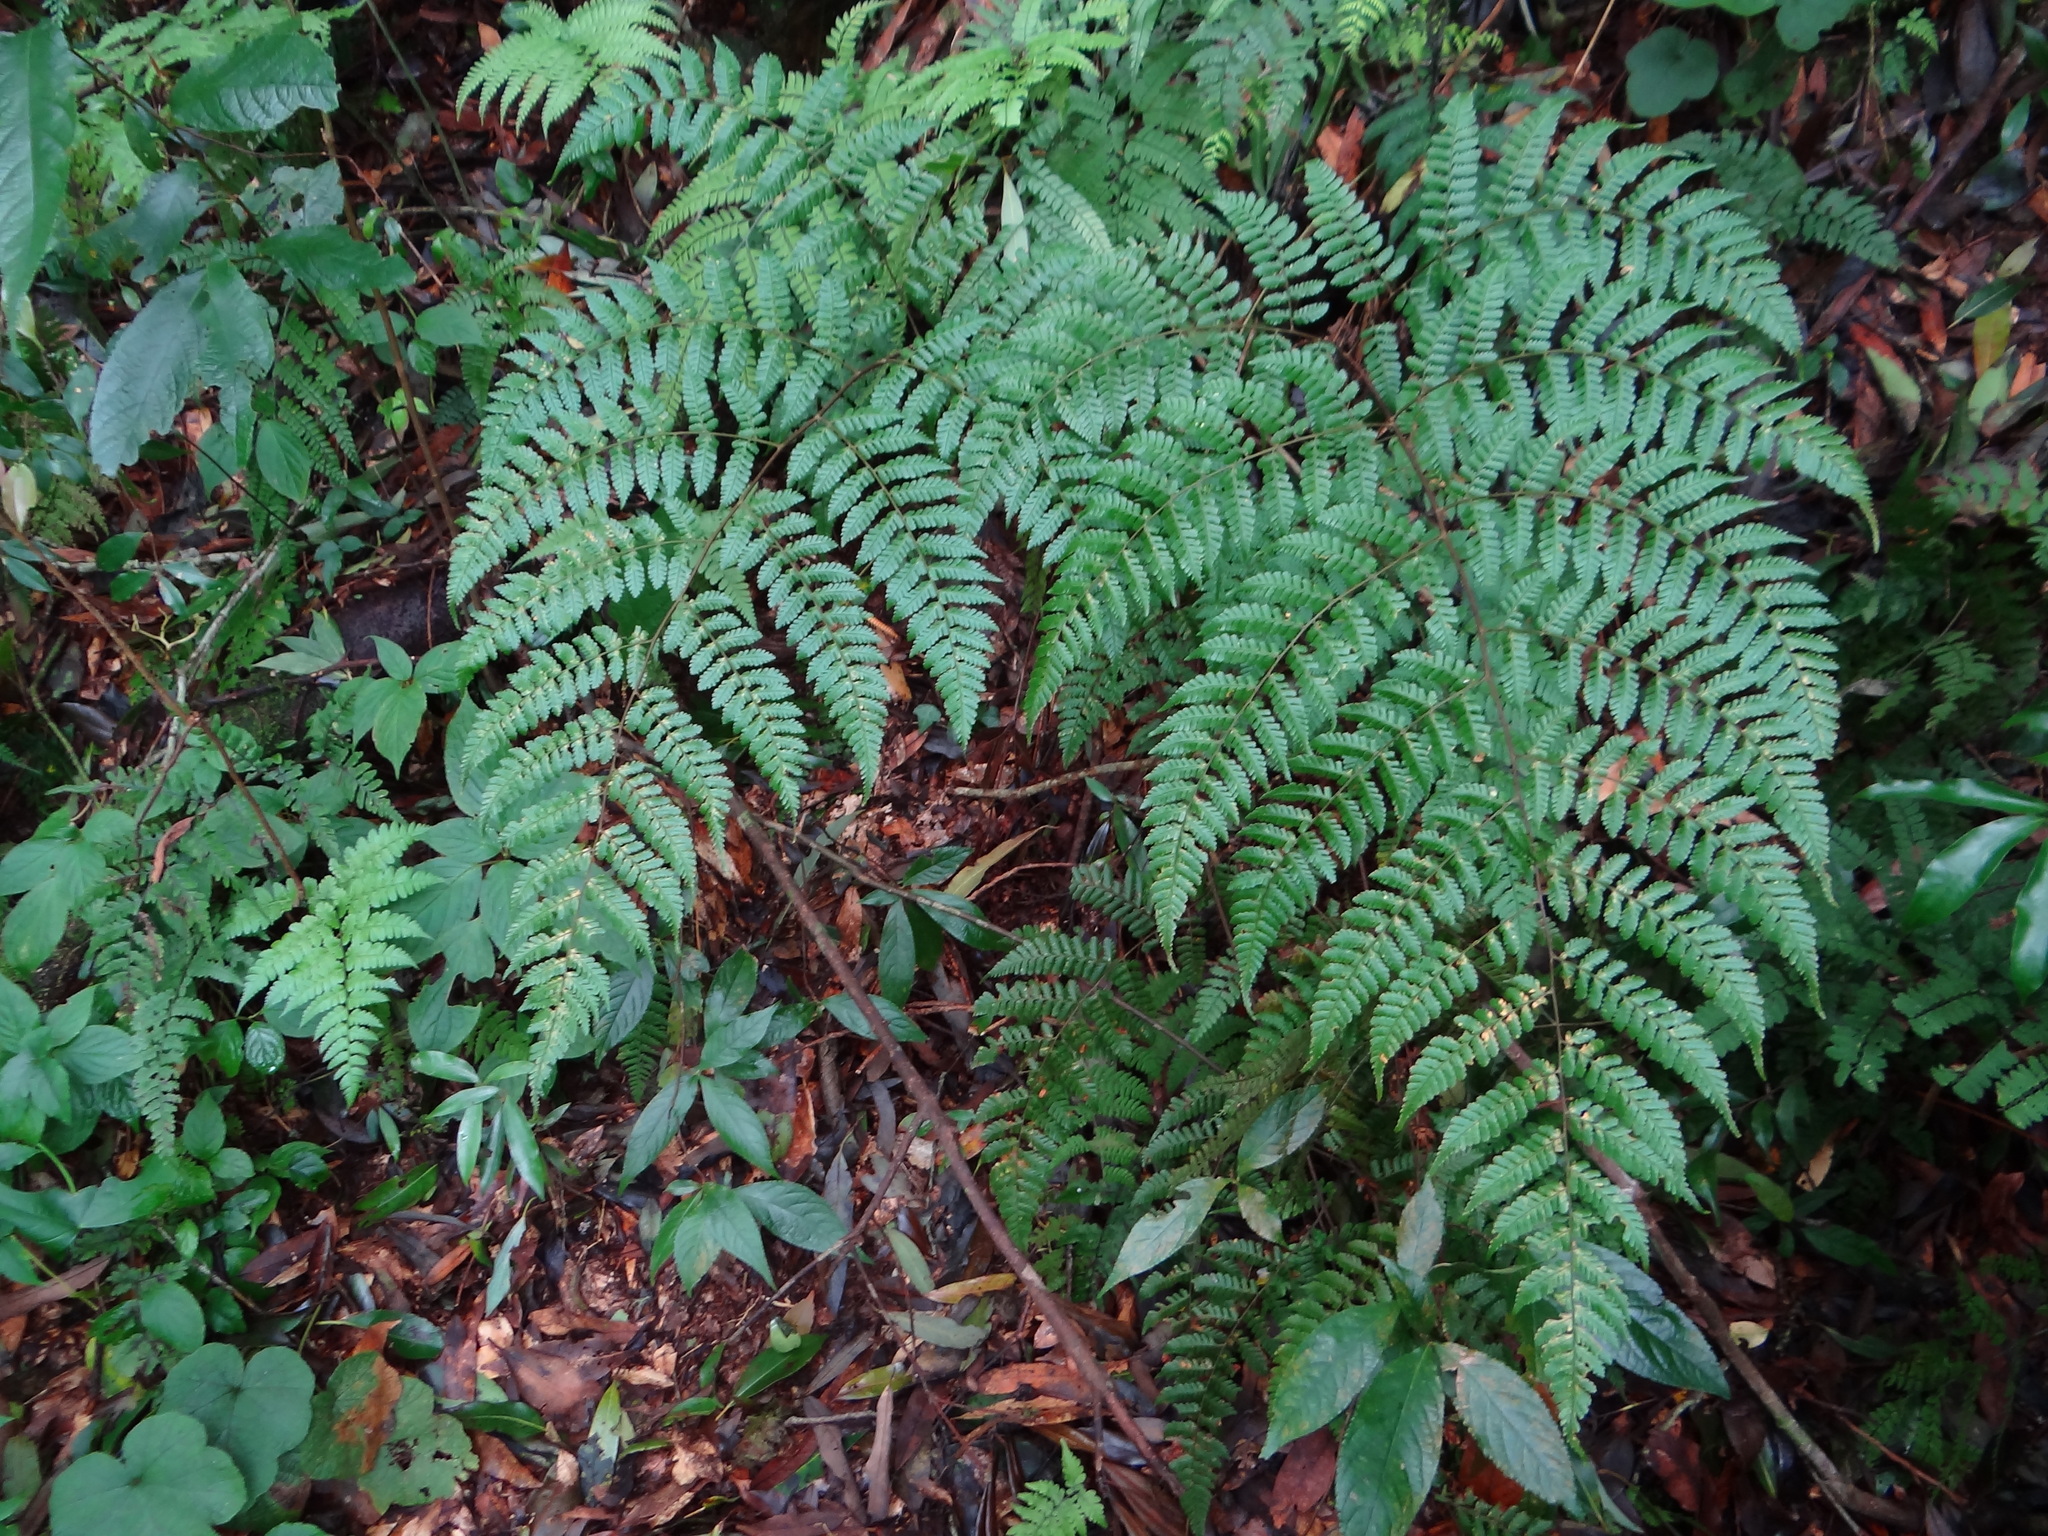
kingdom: Plantae
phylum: Tracheophyta
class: Polypodiopsida
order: Polypodiales
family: Dryopteridaceae
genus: Dryopteris
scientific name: Dryopteris hendersonii
